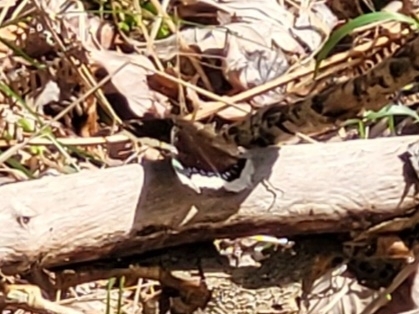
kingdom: Animalia
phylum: Arthropoda
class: Insecta
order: Lepidoptera
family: Nymphalidae
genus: Nymphalis
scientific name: Nymphalis antiopa
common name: Camberwell beauty
